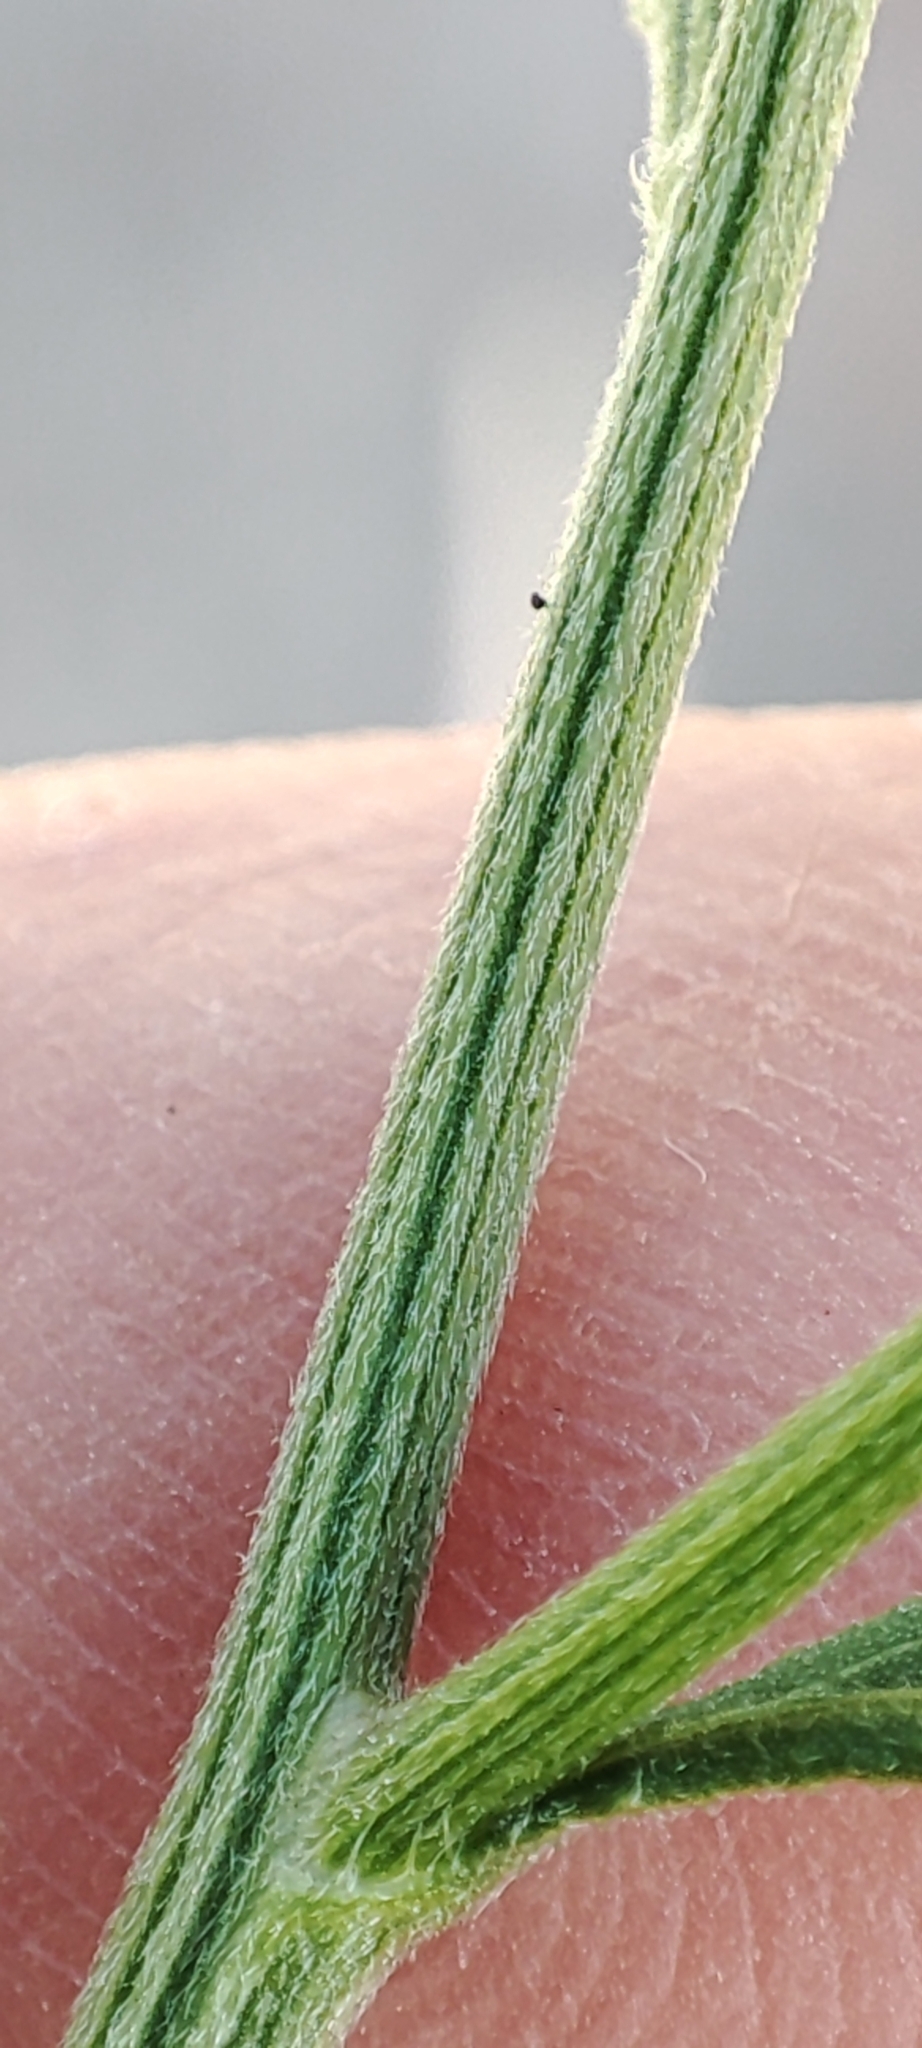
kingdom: Plantae
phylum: Tracheophyta
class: Magnoliopsida
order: Asterales
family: Asteraceae
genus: Cyanthillium
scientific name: Cyanthillium cinereum
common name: Little ironweed
